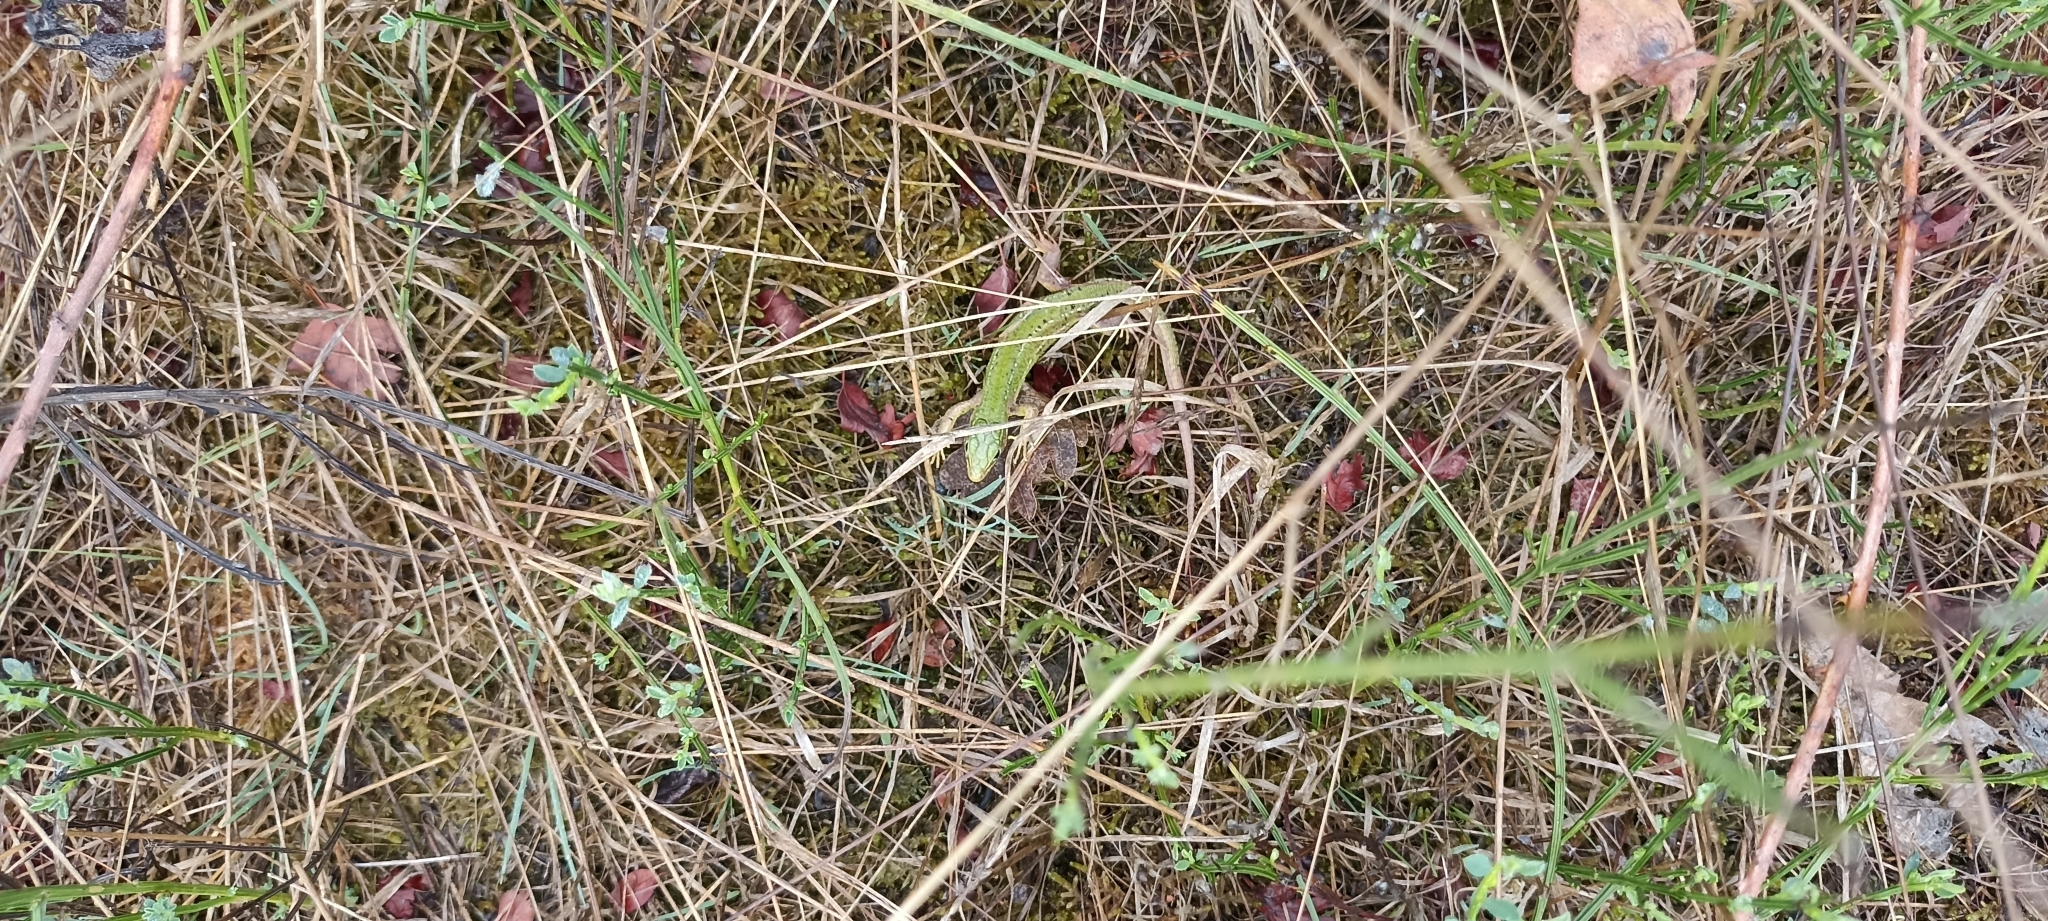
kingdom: Animalia
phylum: Chordata
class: Squamata
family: Lacertidae
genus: Lacerta
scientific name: Lacerta bilineata
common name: Western green lizard
